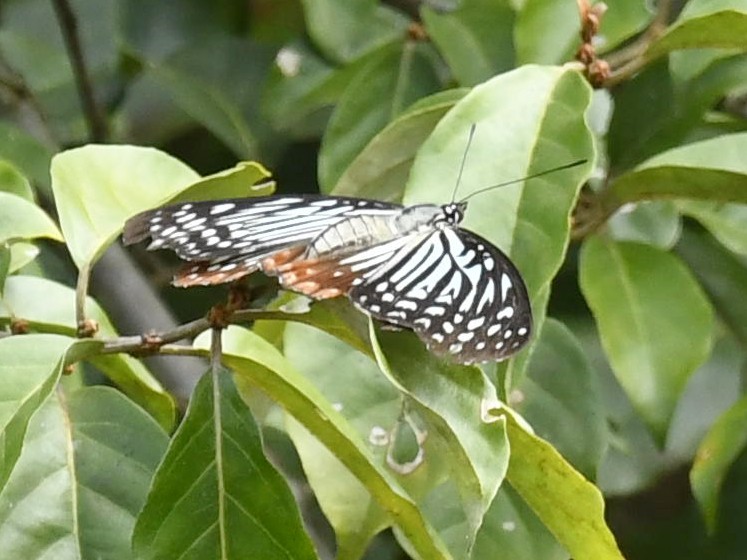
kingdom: Animalia
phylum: Arthropoda
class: Insecta
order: Lepidoptera
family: Nymphalidae
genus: Hestinalis
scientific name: Hestinalis nama
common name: Circe
